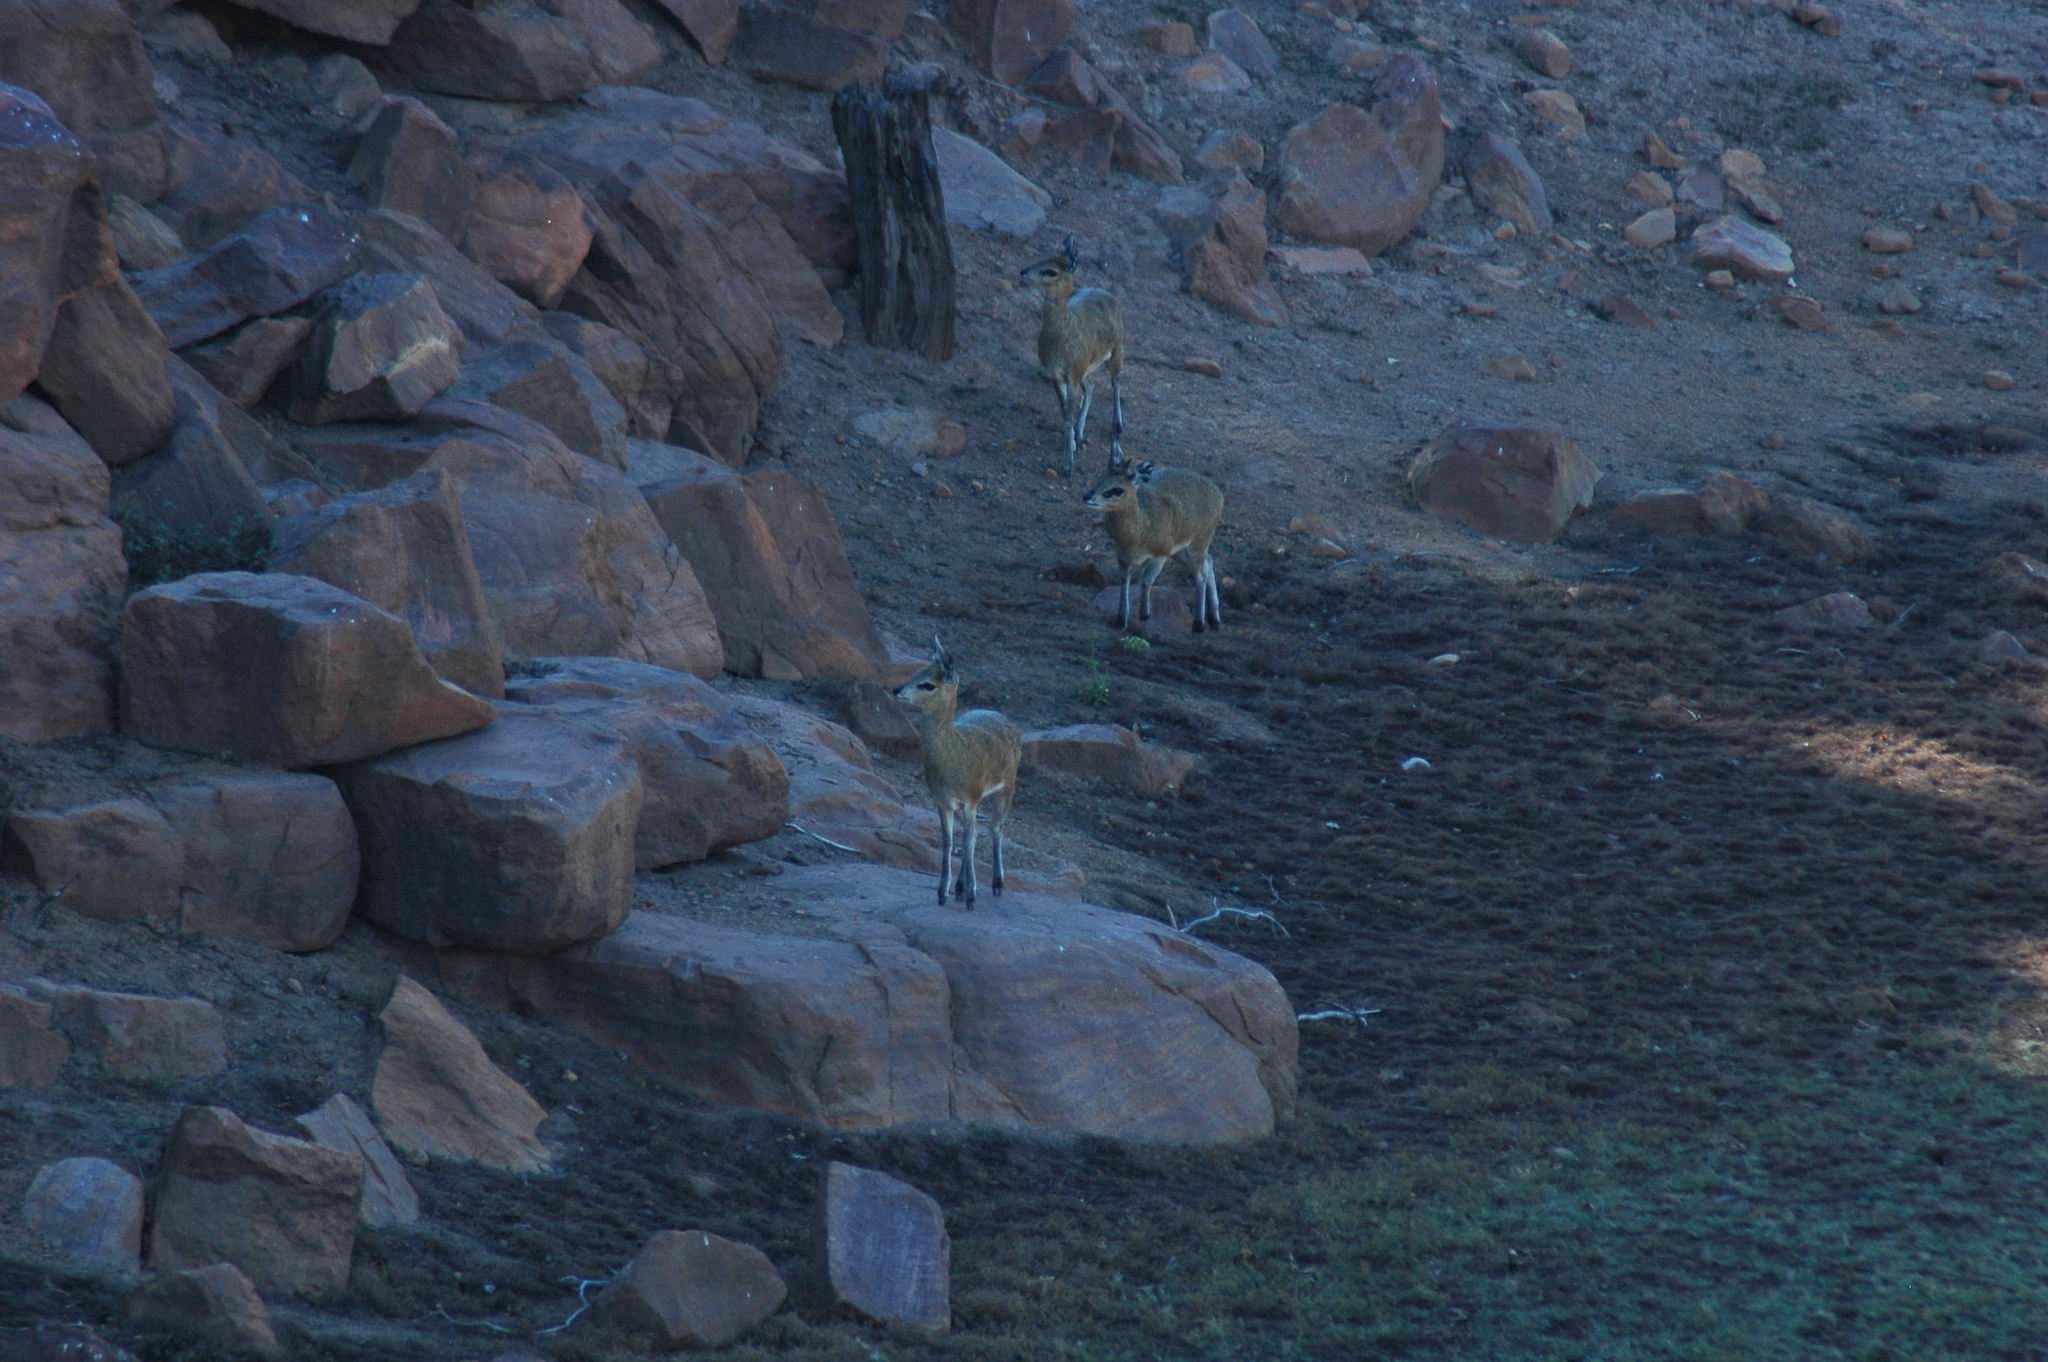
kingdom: Animalia
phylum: Chordata
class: Mammalia
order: Artiodactyla
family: Bovidae
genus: Oreotragus
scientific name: Oreotragus oreotragus
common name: Klipspringer
